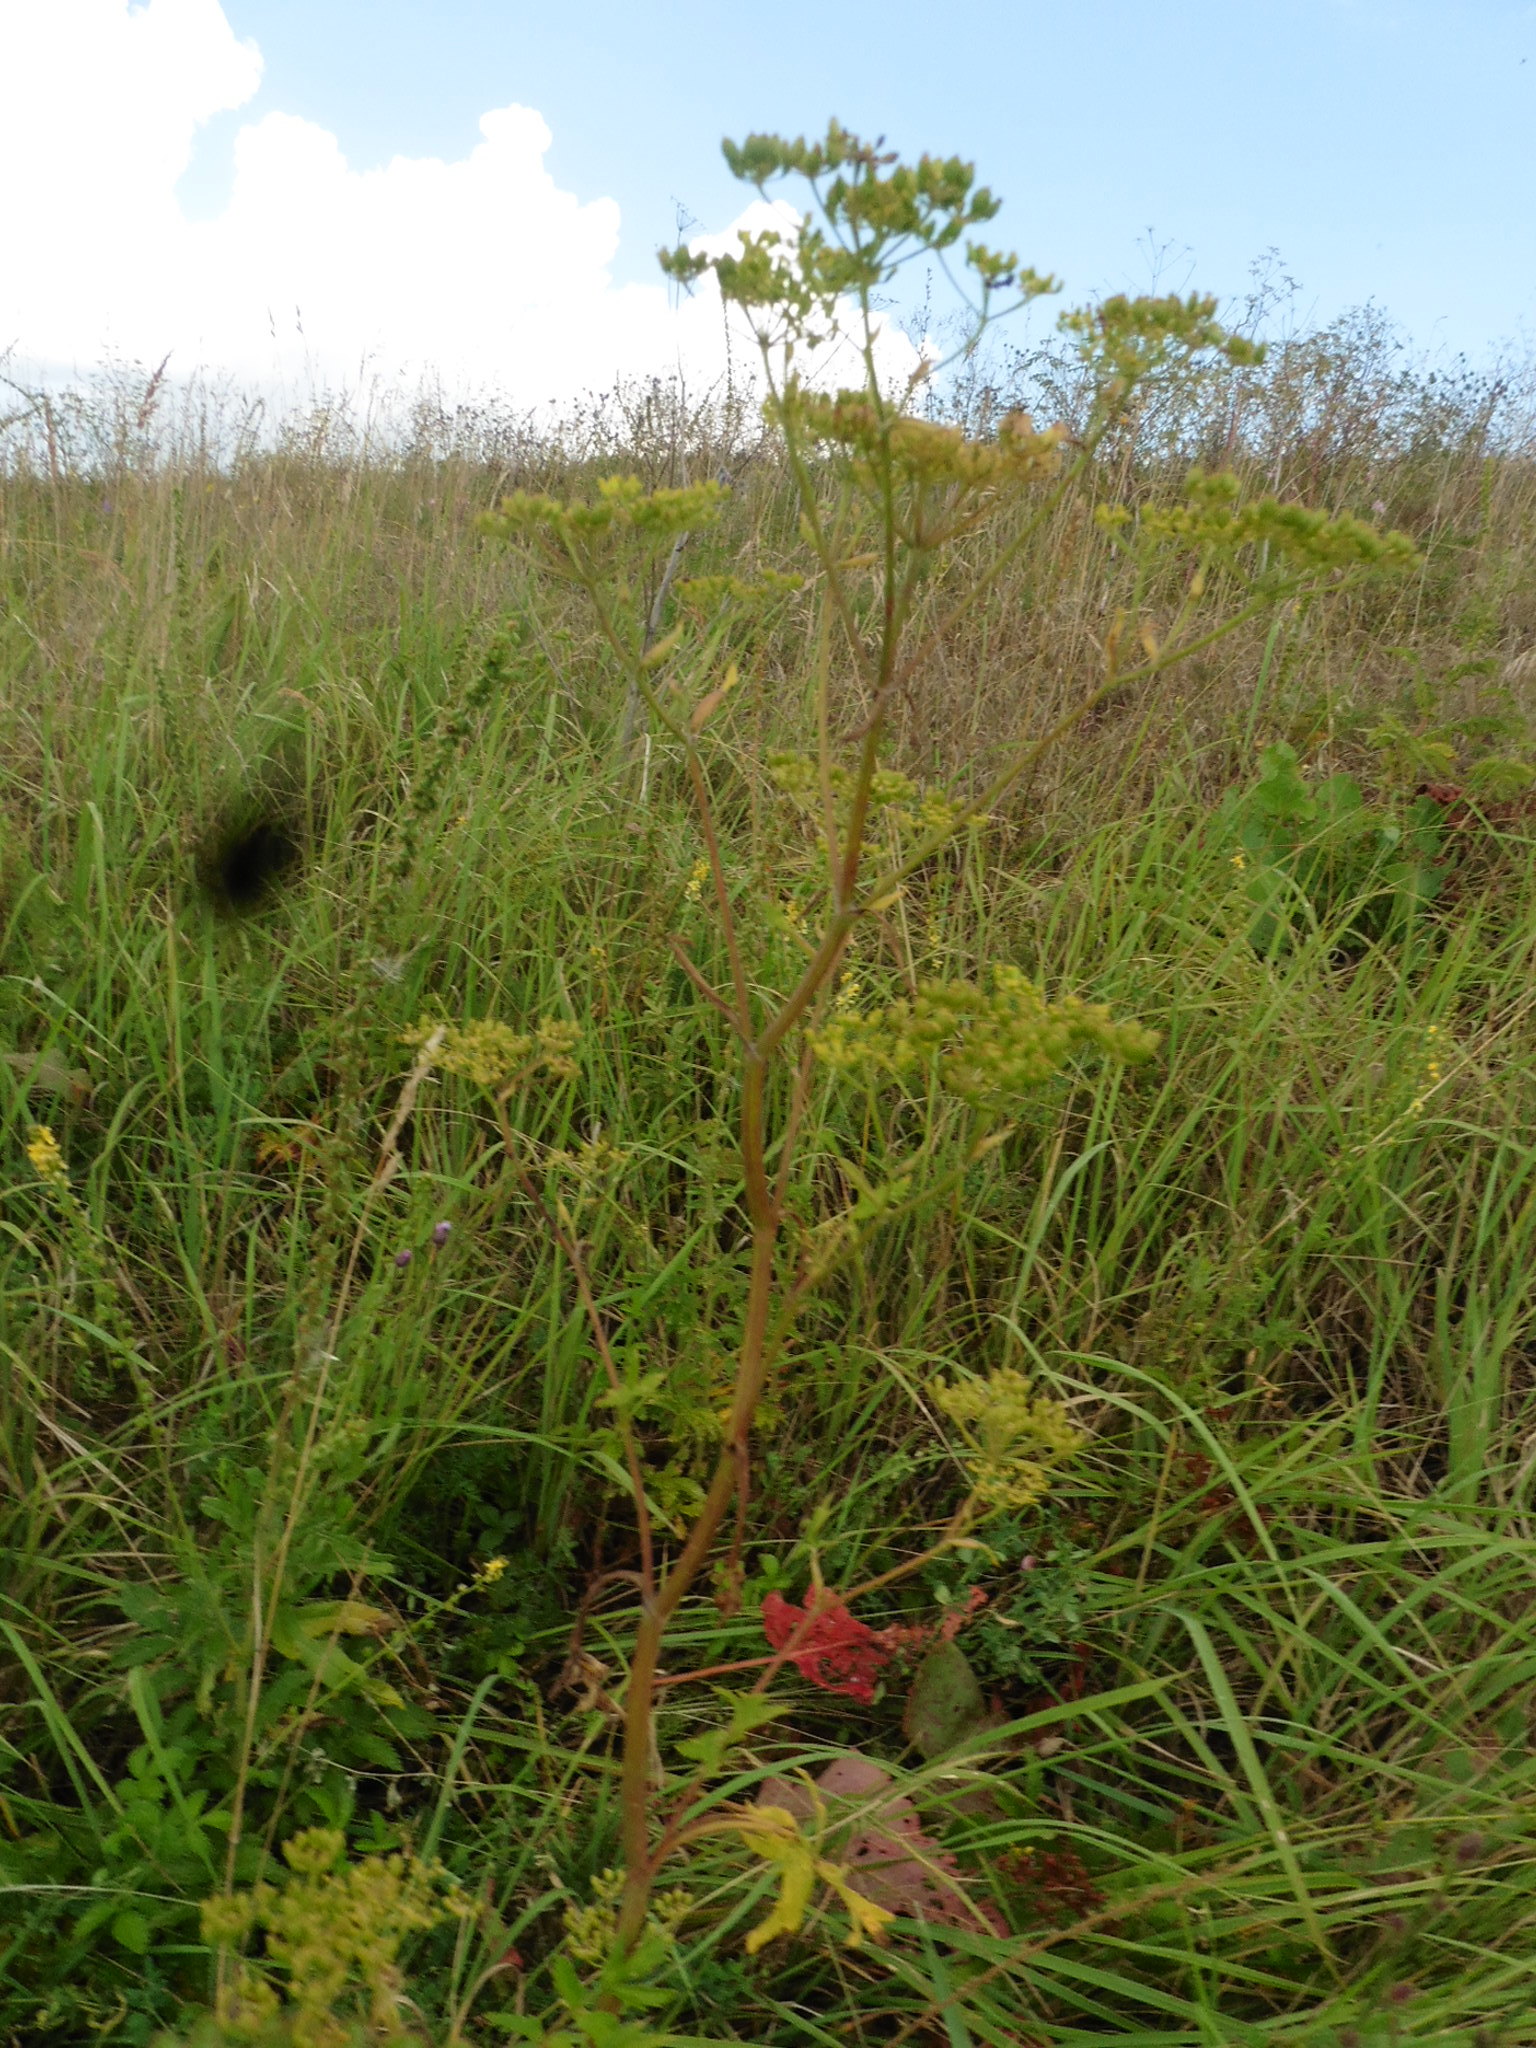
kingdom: Plantae
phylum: Tracheophyta
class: Magnoliopsida
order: Apiales
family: Apiaceae
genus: Pastinaca
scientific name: Pastinaca sativa
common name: Wild parsnip
